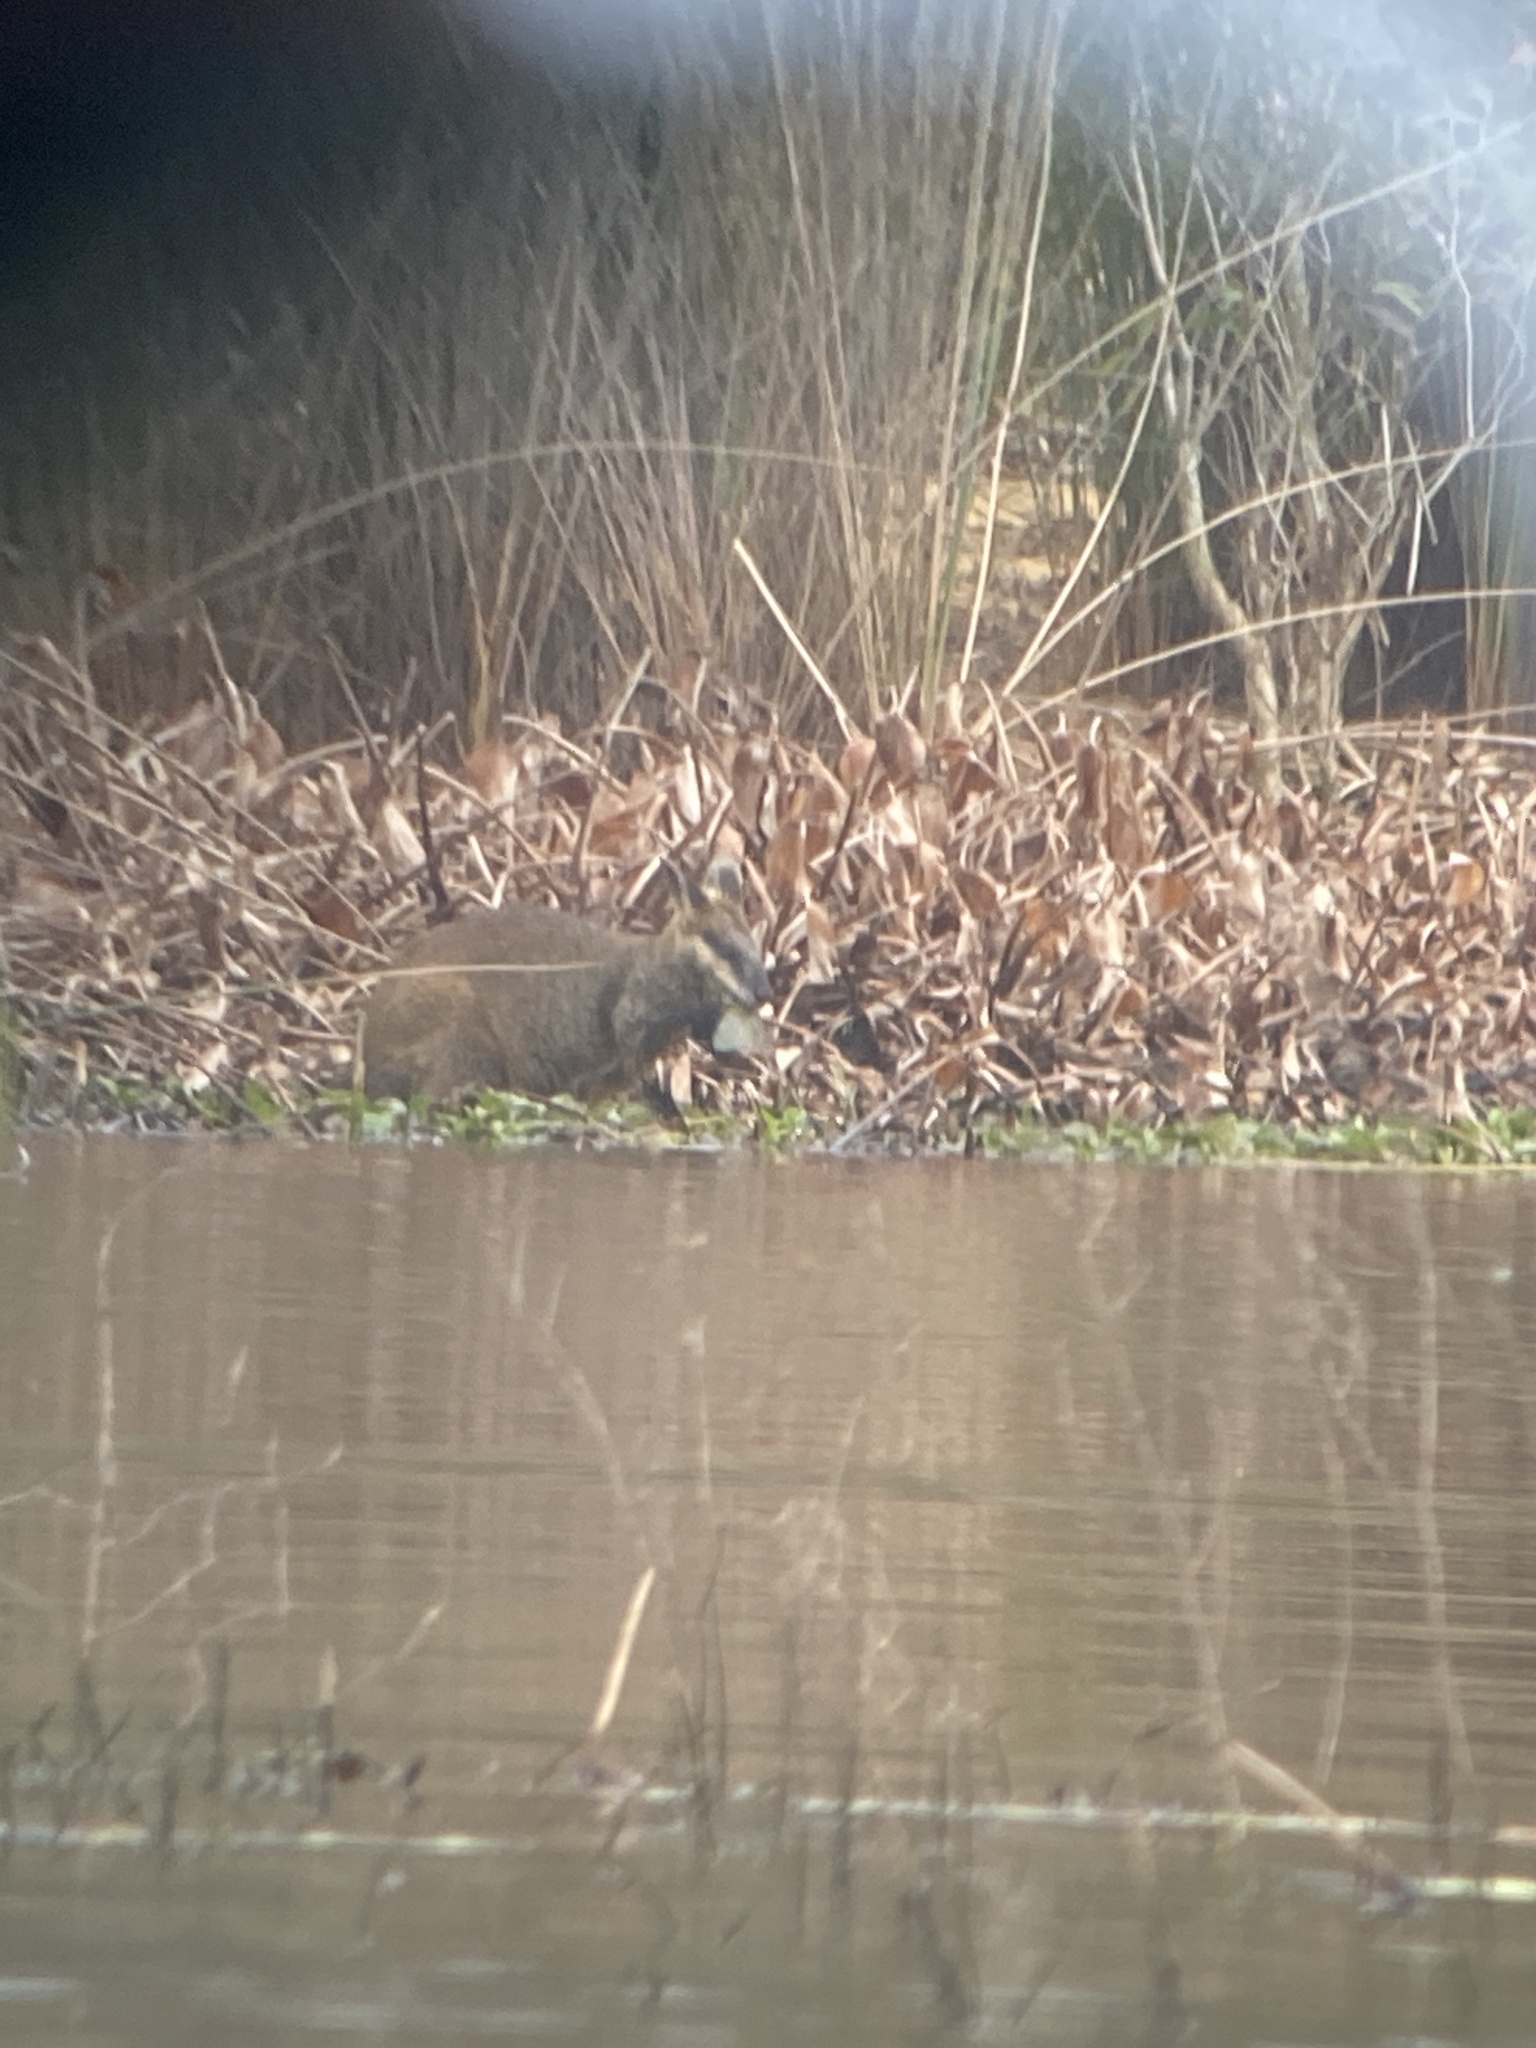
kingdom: Animalia
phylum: Chordata
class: Mammalia
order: Diprotodontia
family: Macropodidae
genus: Wallabia
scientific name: Wallabia bicolor
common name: Swamp wallaby
